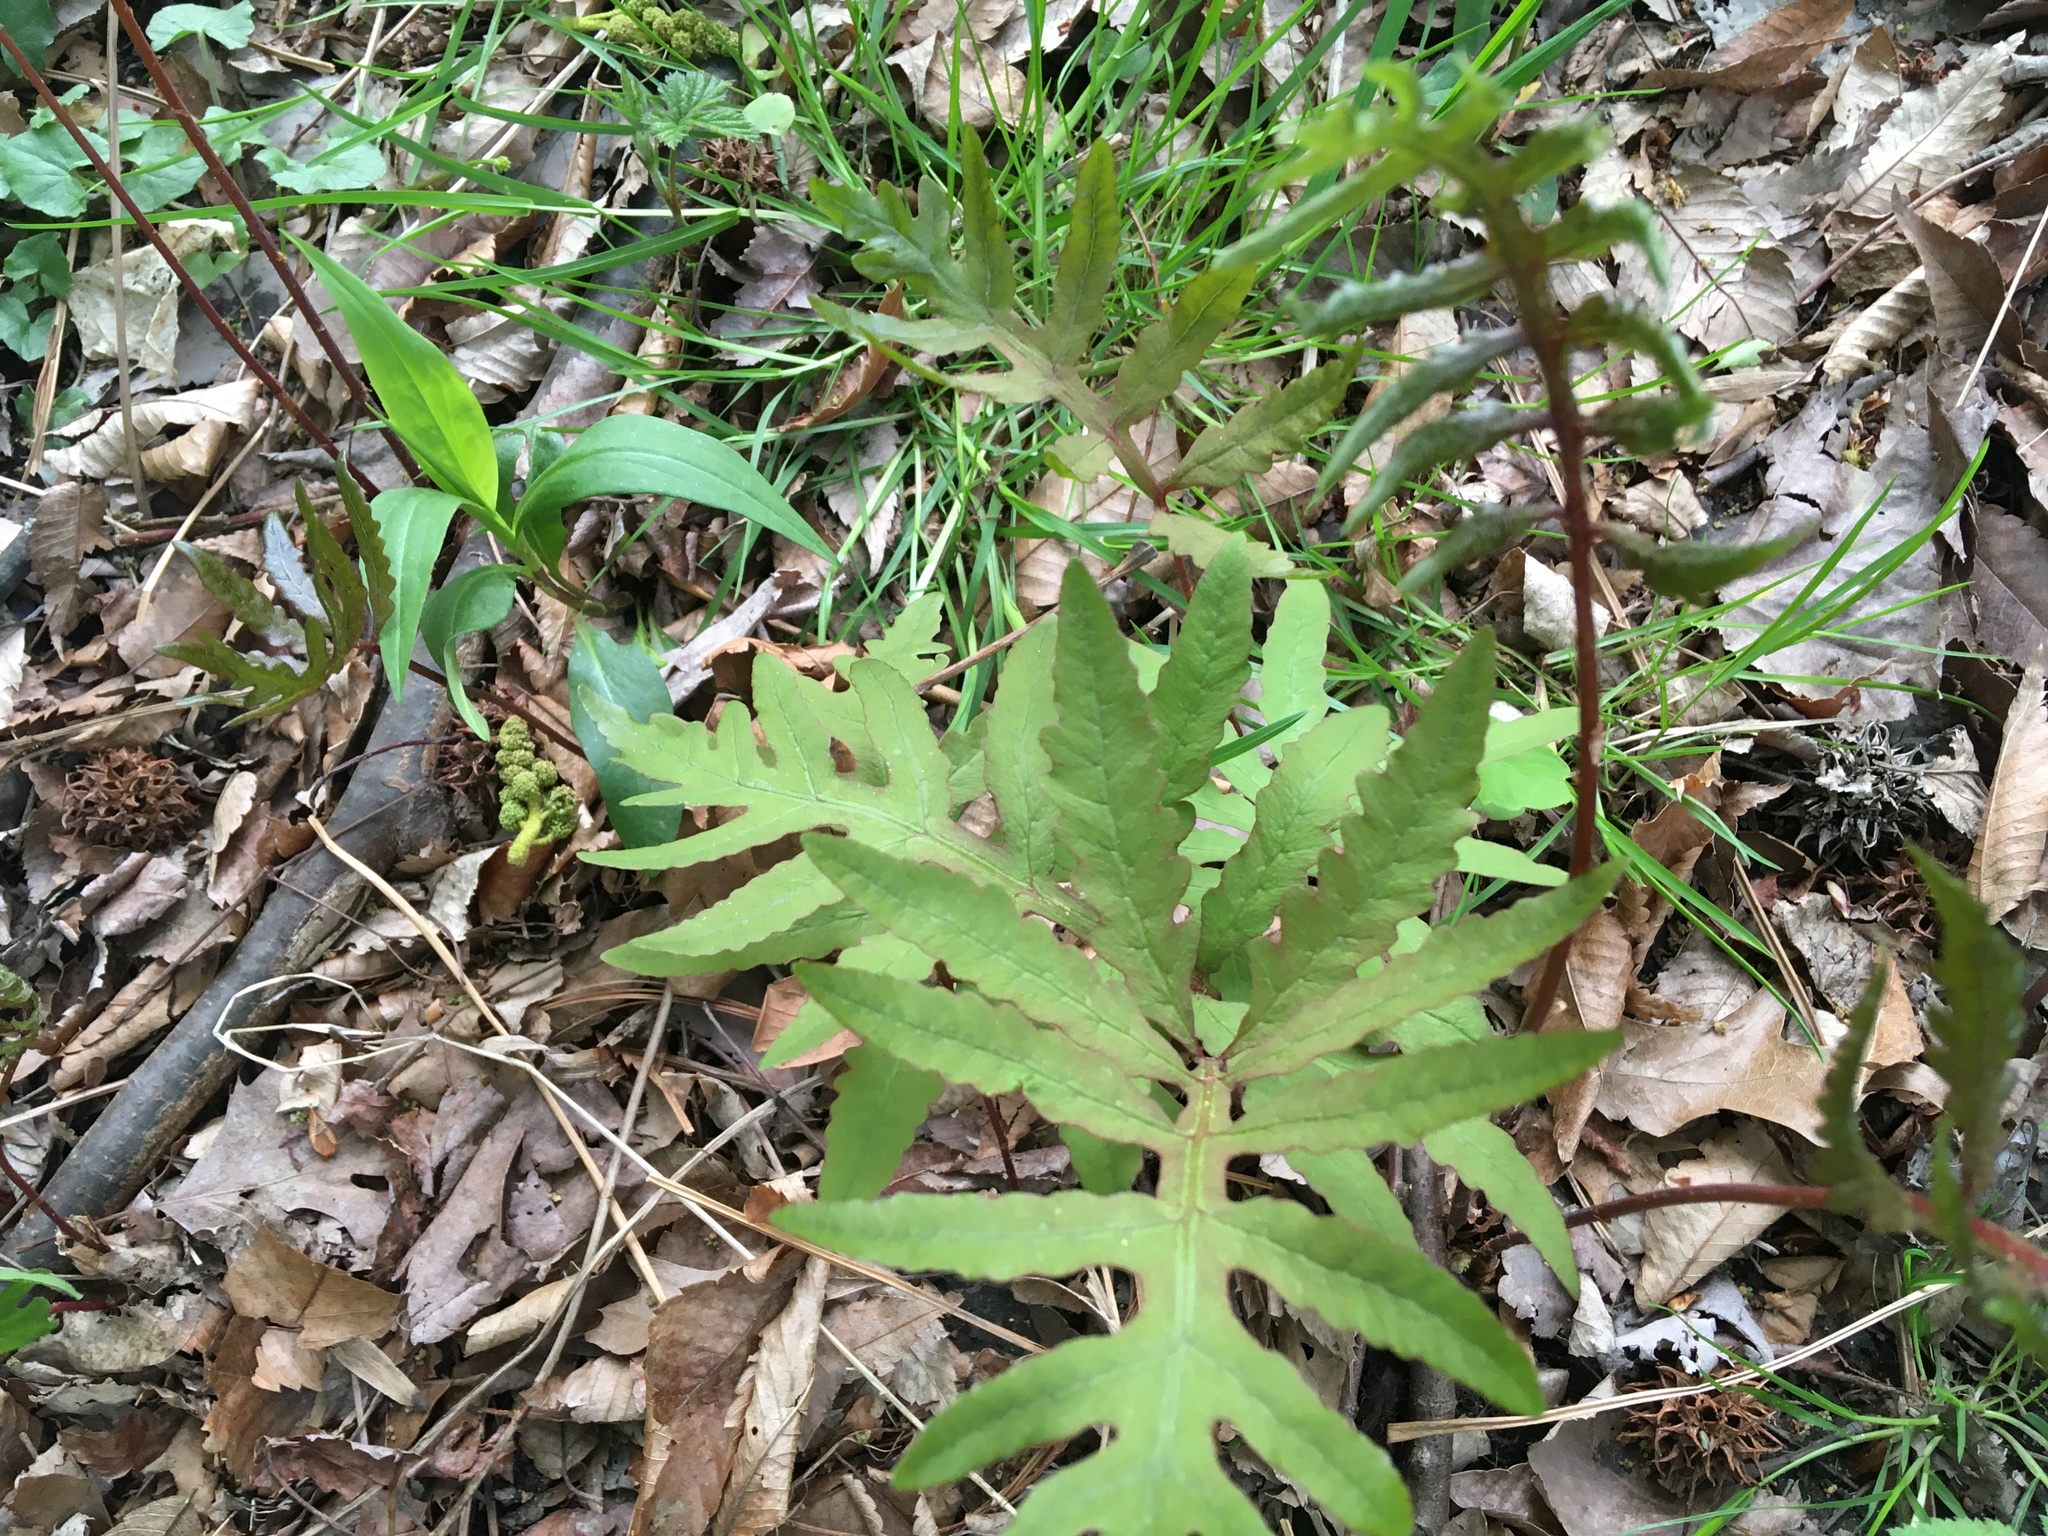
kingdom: Plantae
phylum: Tracheophyta
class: Polypodiopsida
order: Polypodiales
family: Onocleaceae
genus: Onoclea
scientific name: Onoclea sensibilis
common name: Sensitive fern
